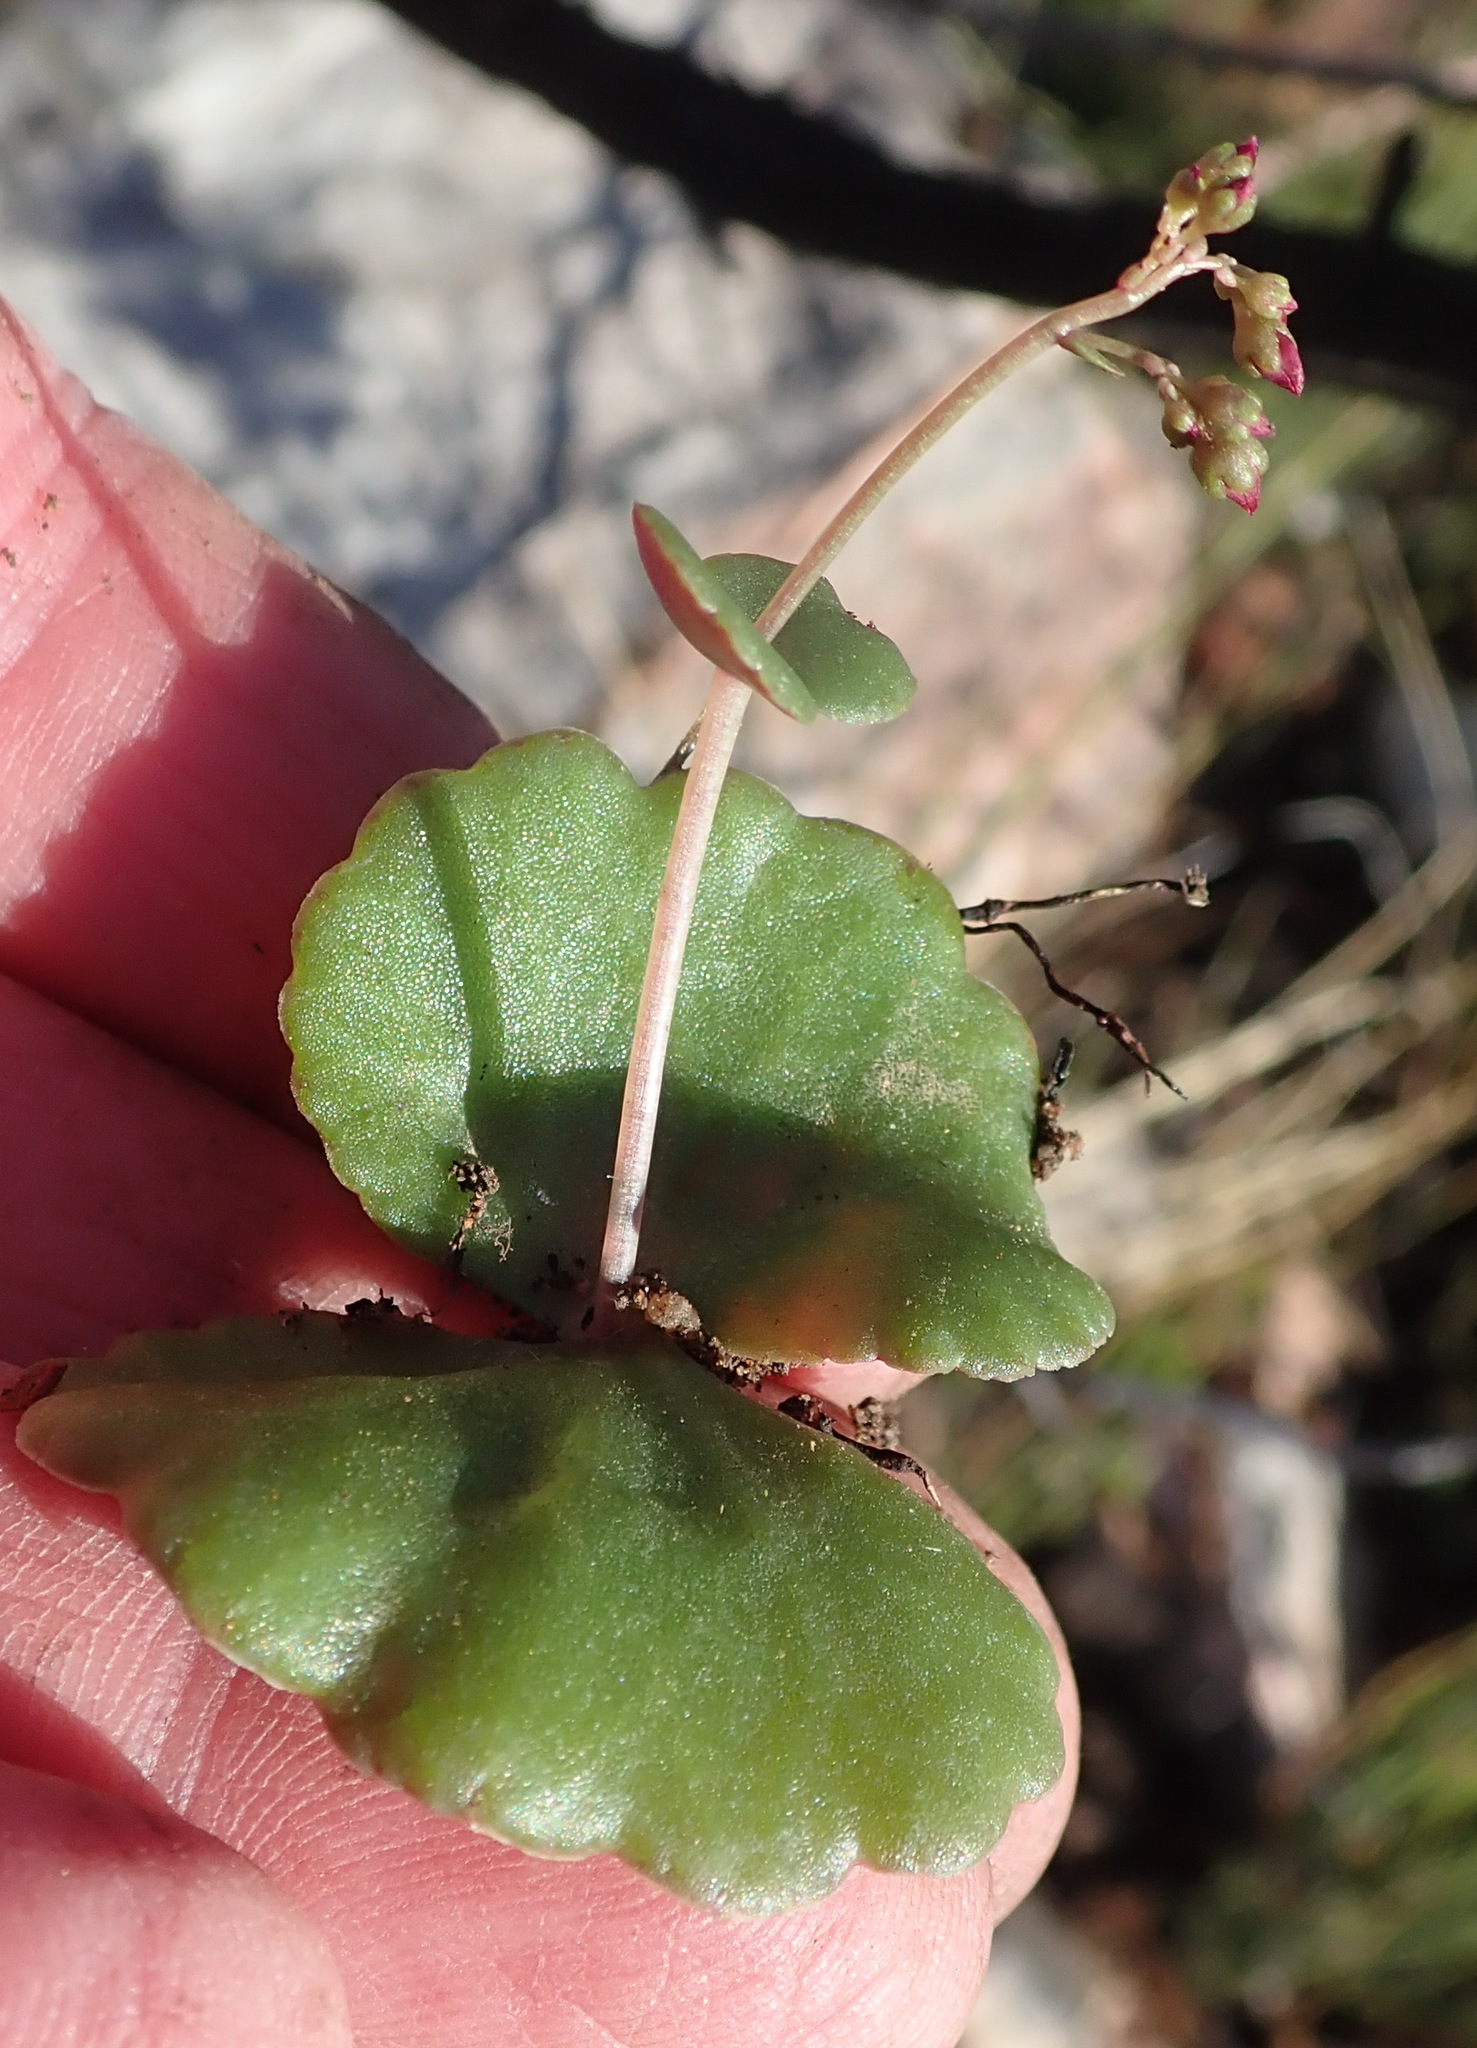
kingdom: Plantae
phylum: Tracheophyta
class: Magnoliopsida
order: Saxifragales
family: Crassulaceae
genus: Crassula
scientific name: Crassula umbella
